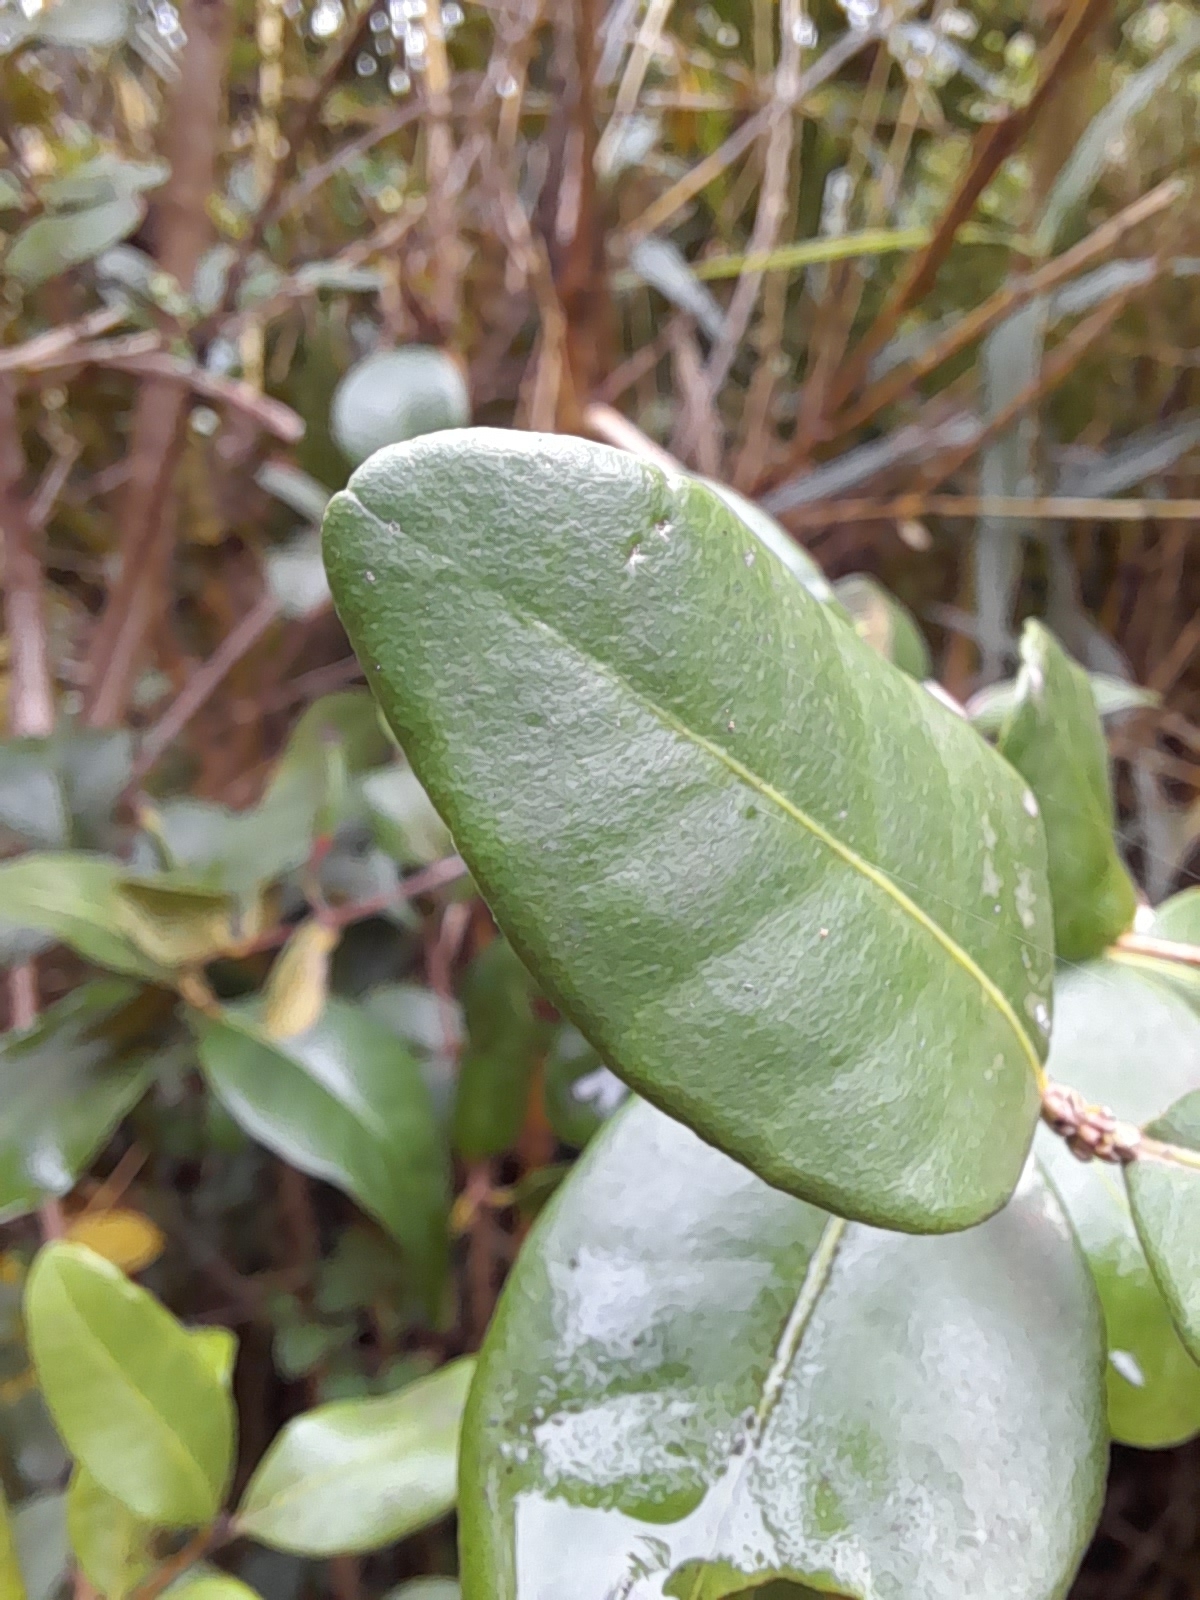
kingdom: Plantae
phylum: Tracheophyta
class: Magnoliopsida
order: Myrtales
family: Myrtaceae
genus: Blepharocalyx
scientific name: Blepharocalyx cruckshanksii
